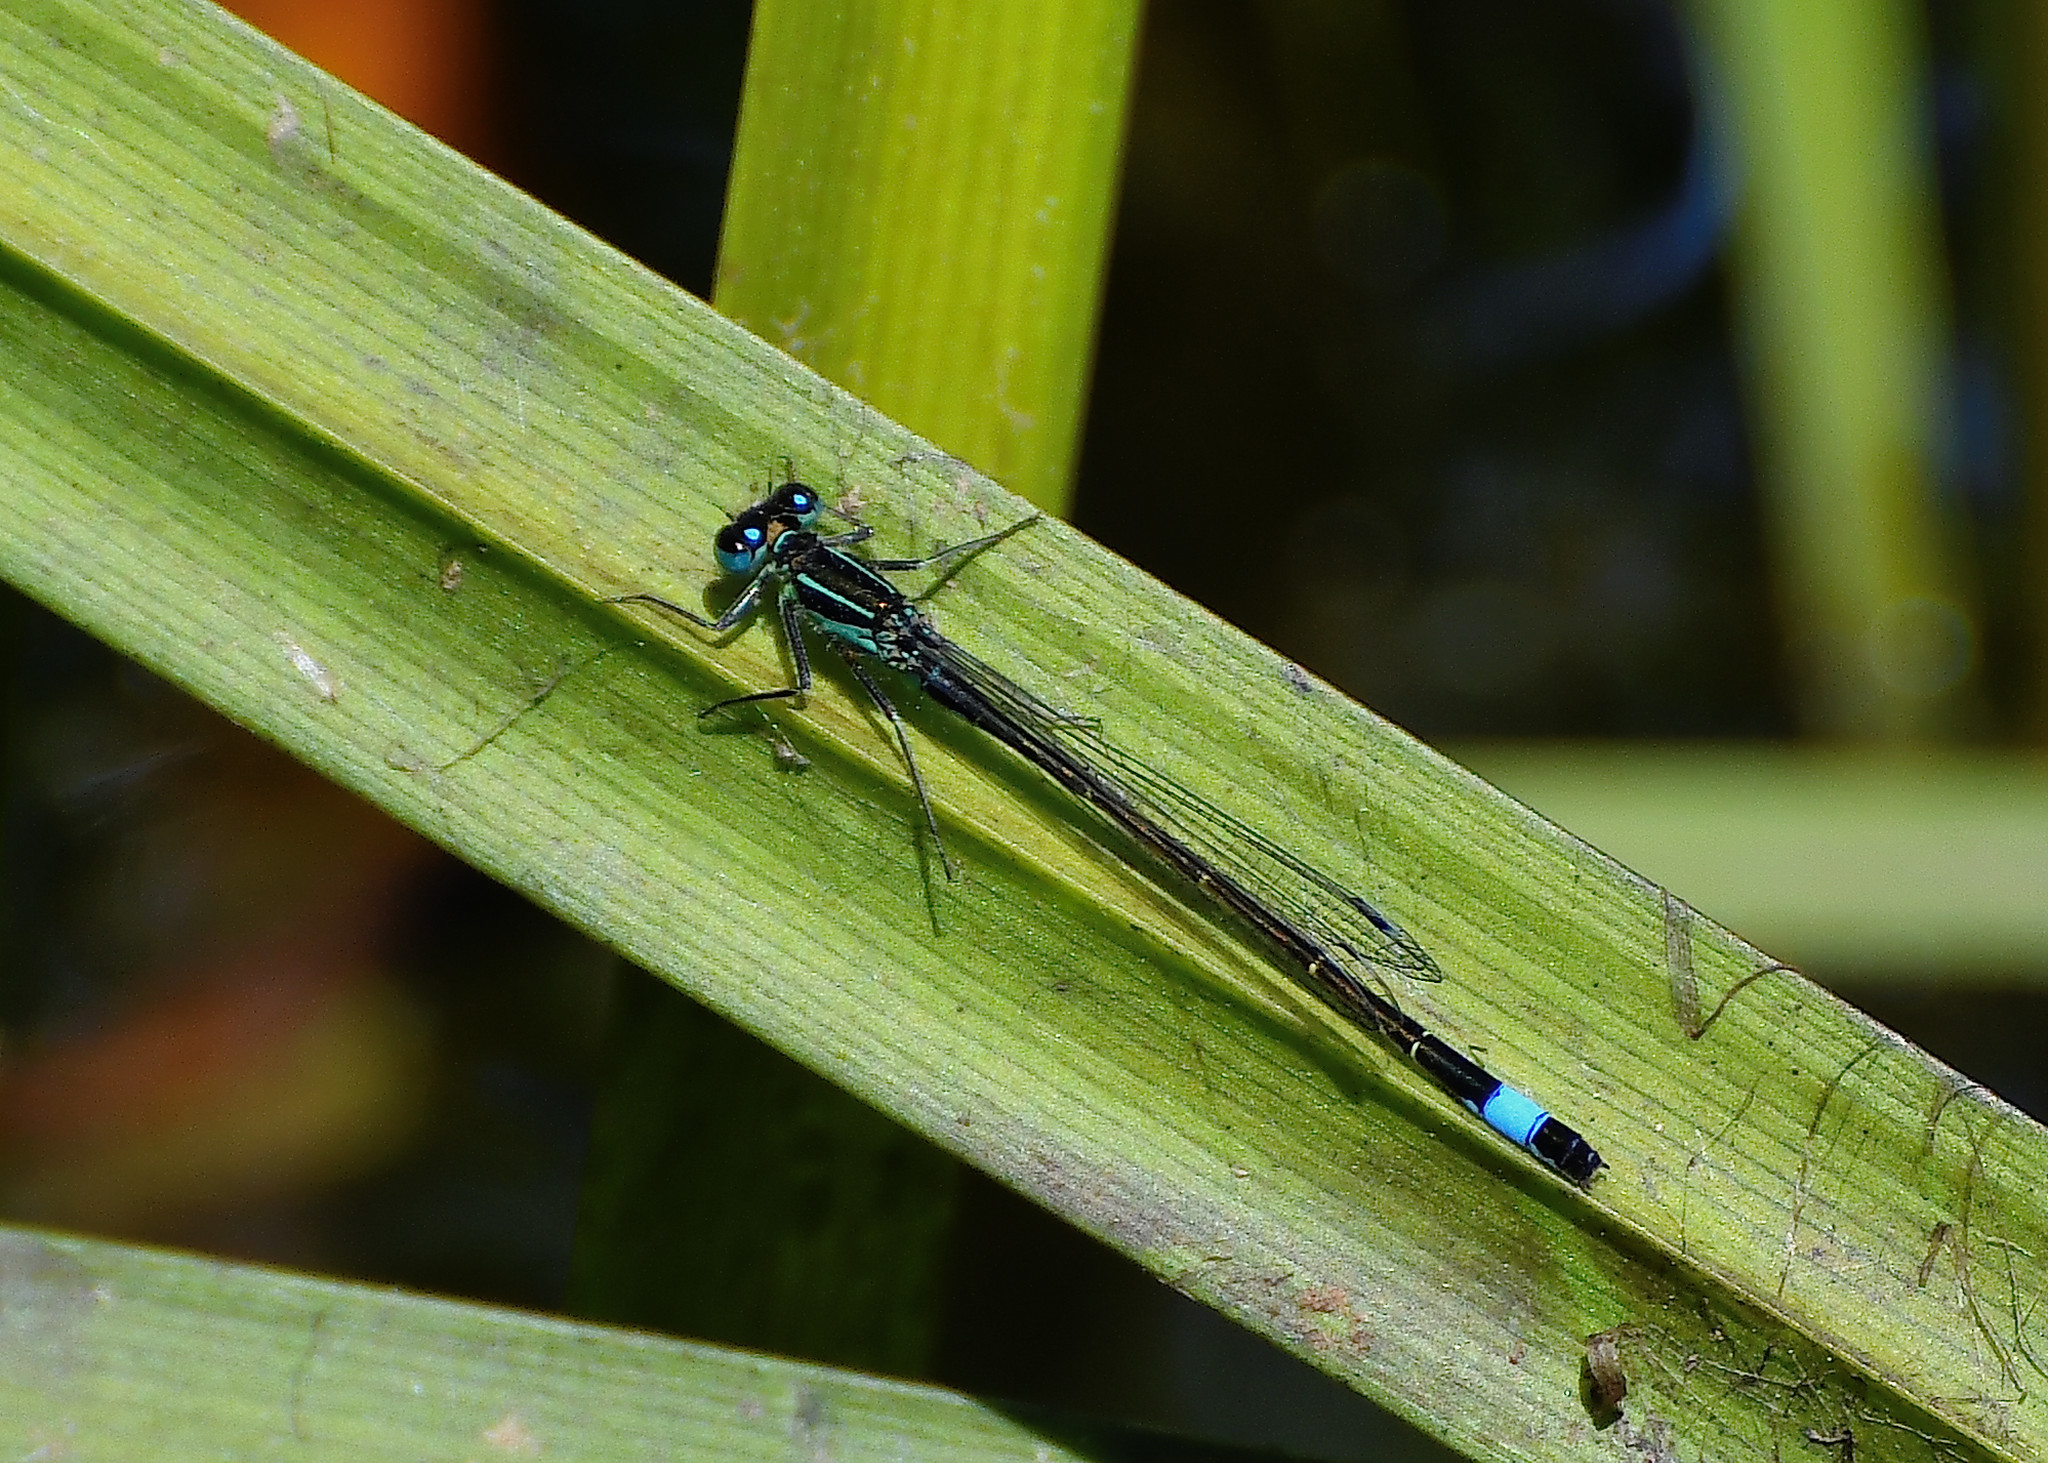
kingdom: Animalia
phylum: Arthropoda
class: Insecta
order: Odonata
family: Coenagrionidae
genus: Ischnura
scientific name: Ischnura elegans
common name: Blue-tailed damselfly
